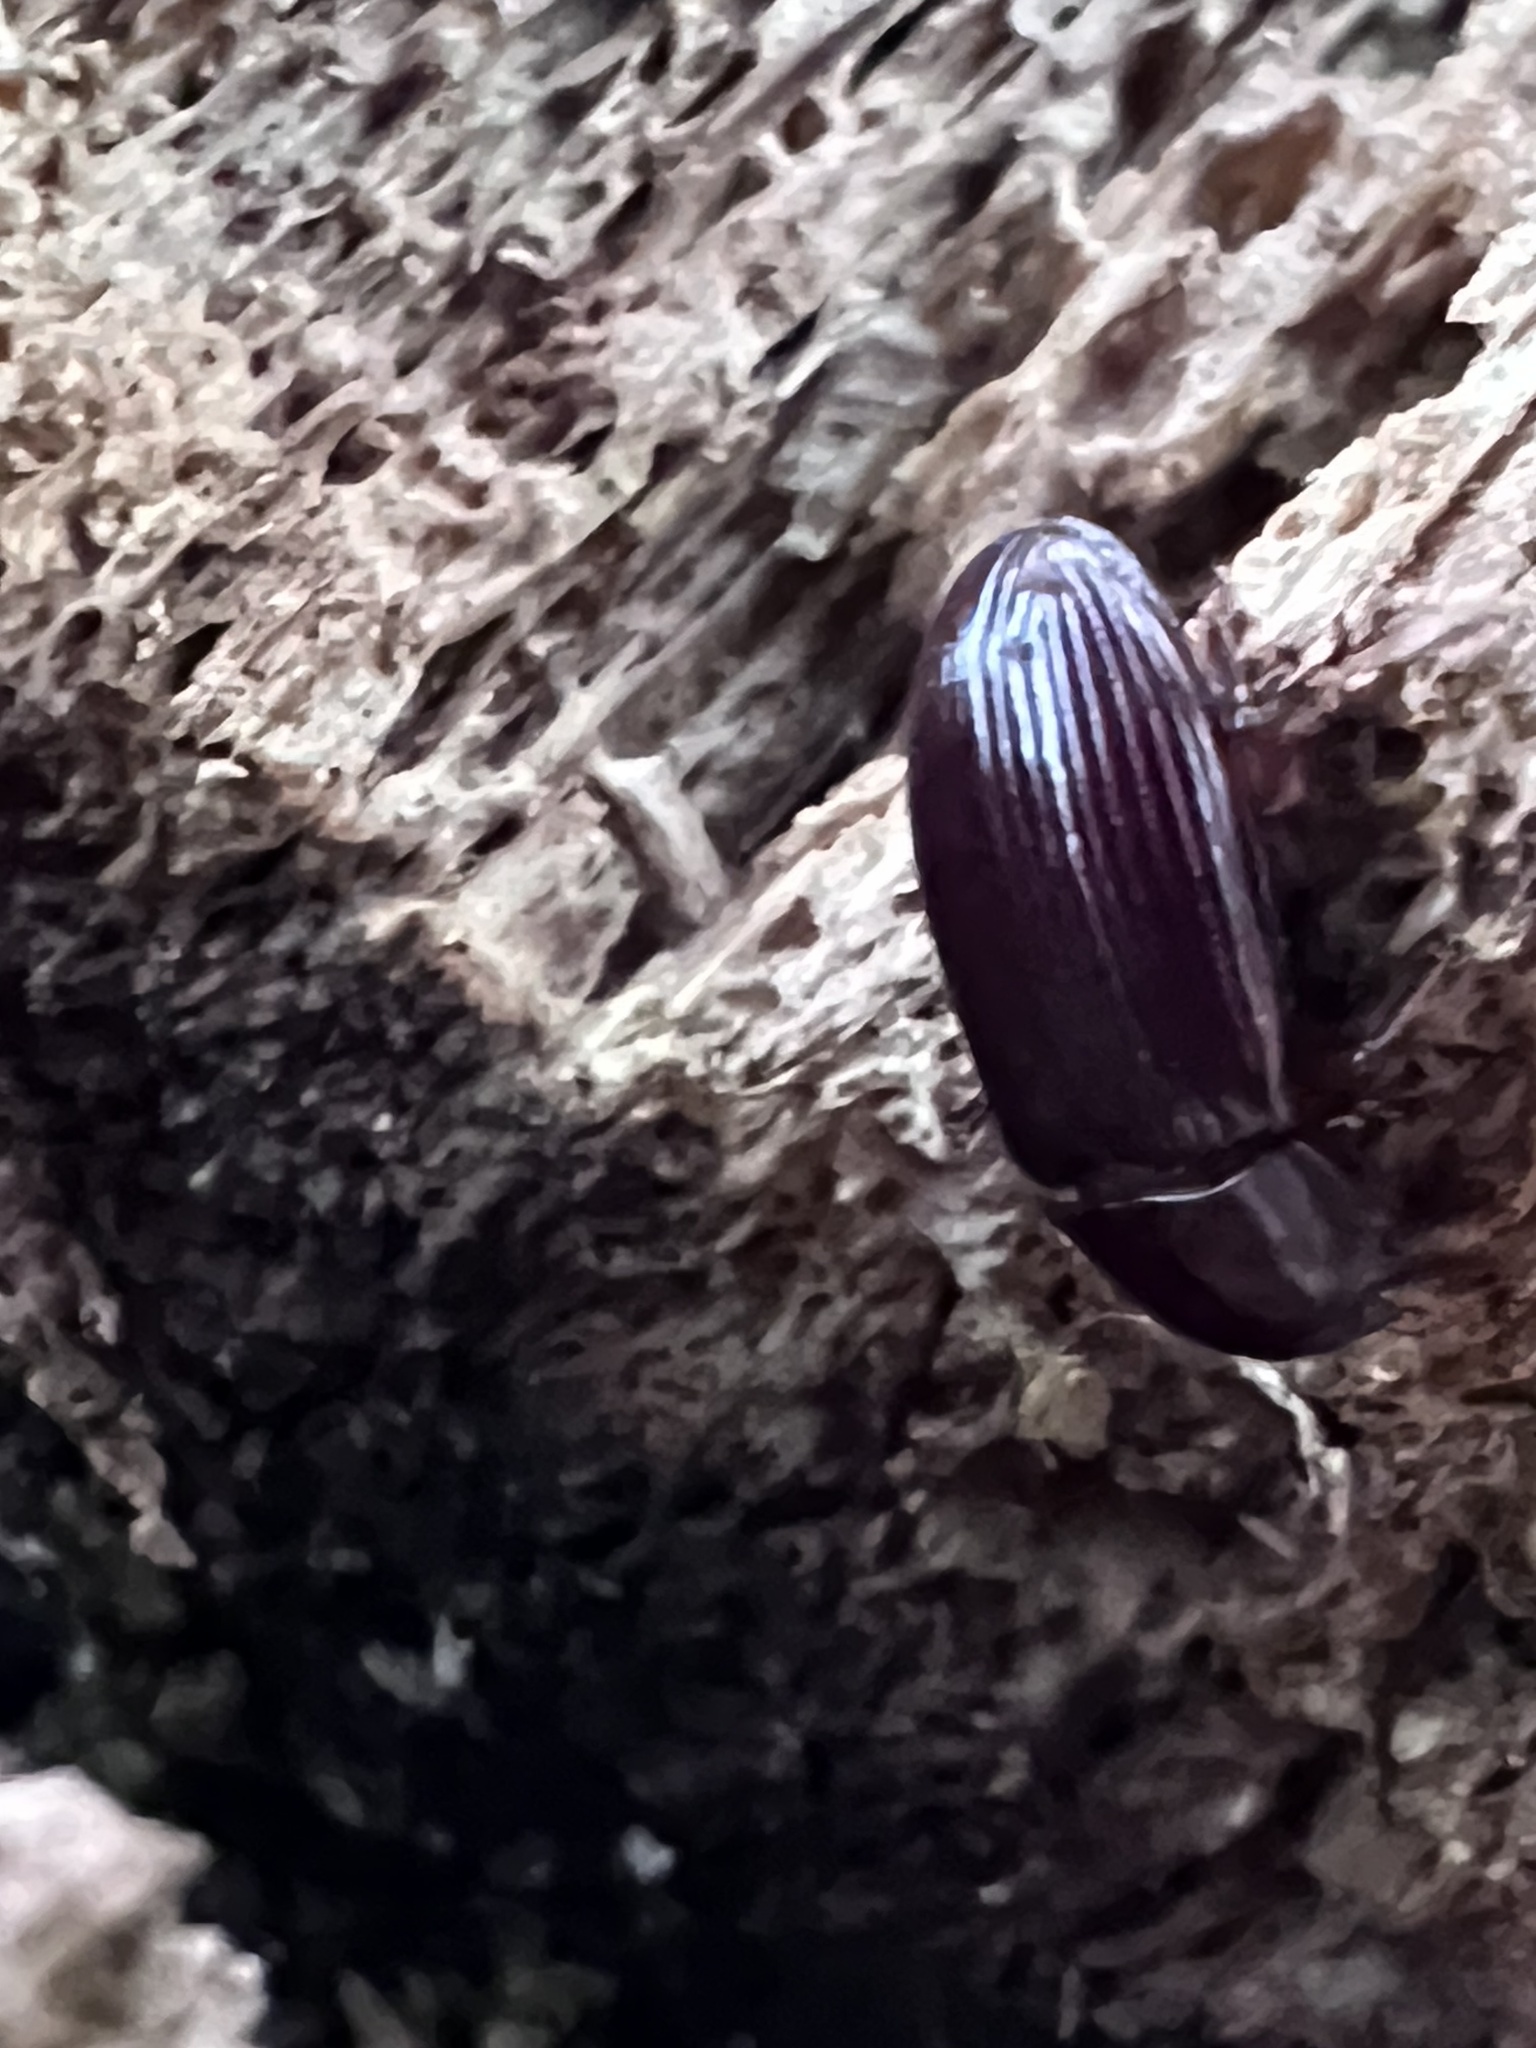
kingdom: Animalia
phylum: Arthropoda
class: Insecta
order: Coleoptera
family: Tenebrionidae
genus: Uloma
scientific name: Uloma imberbis
